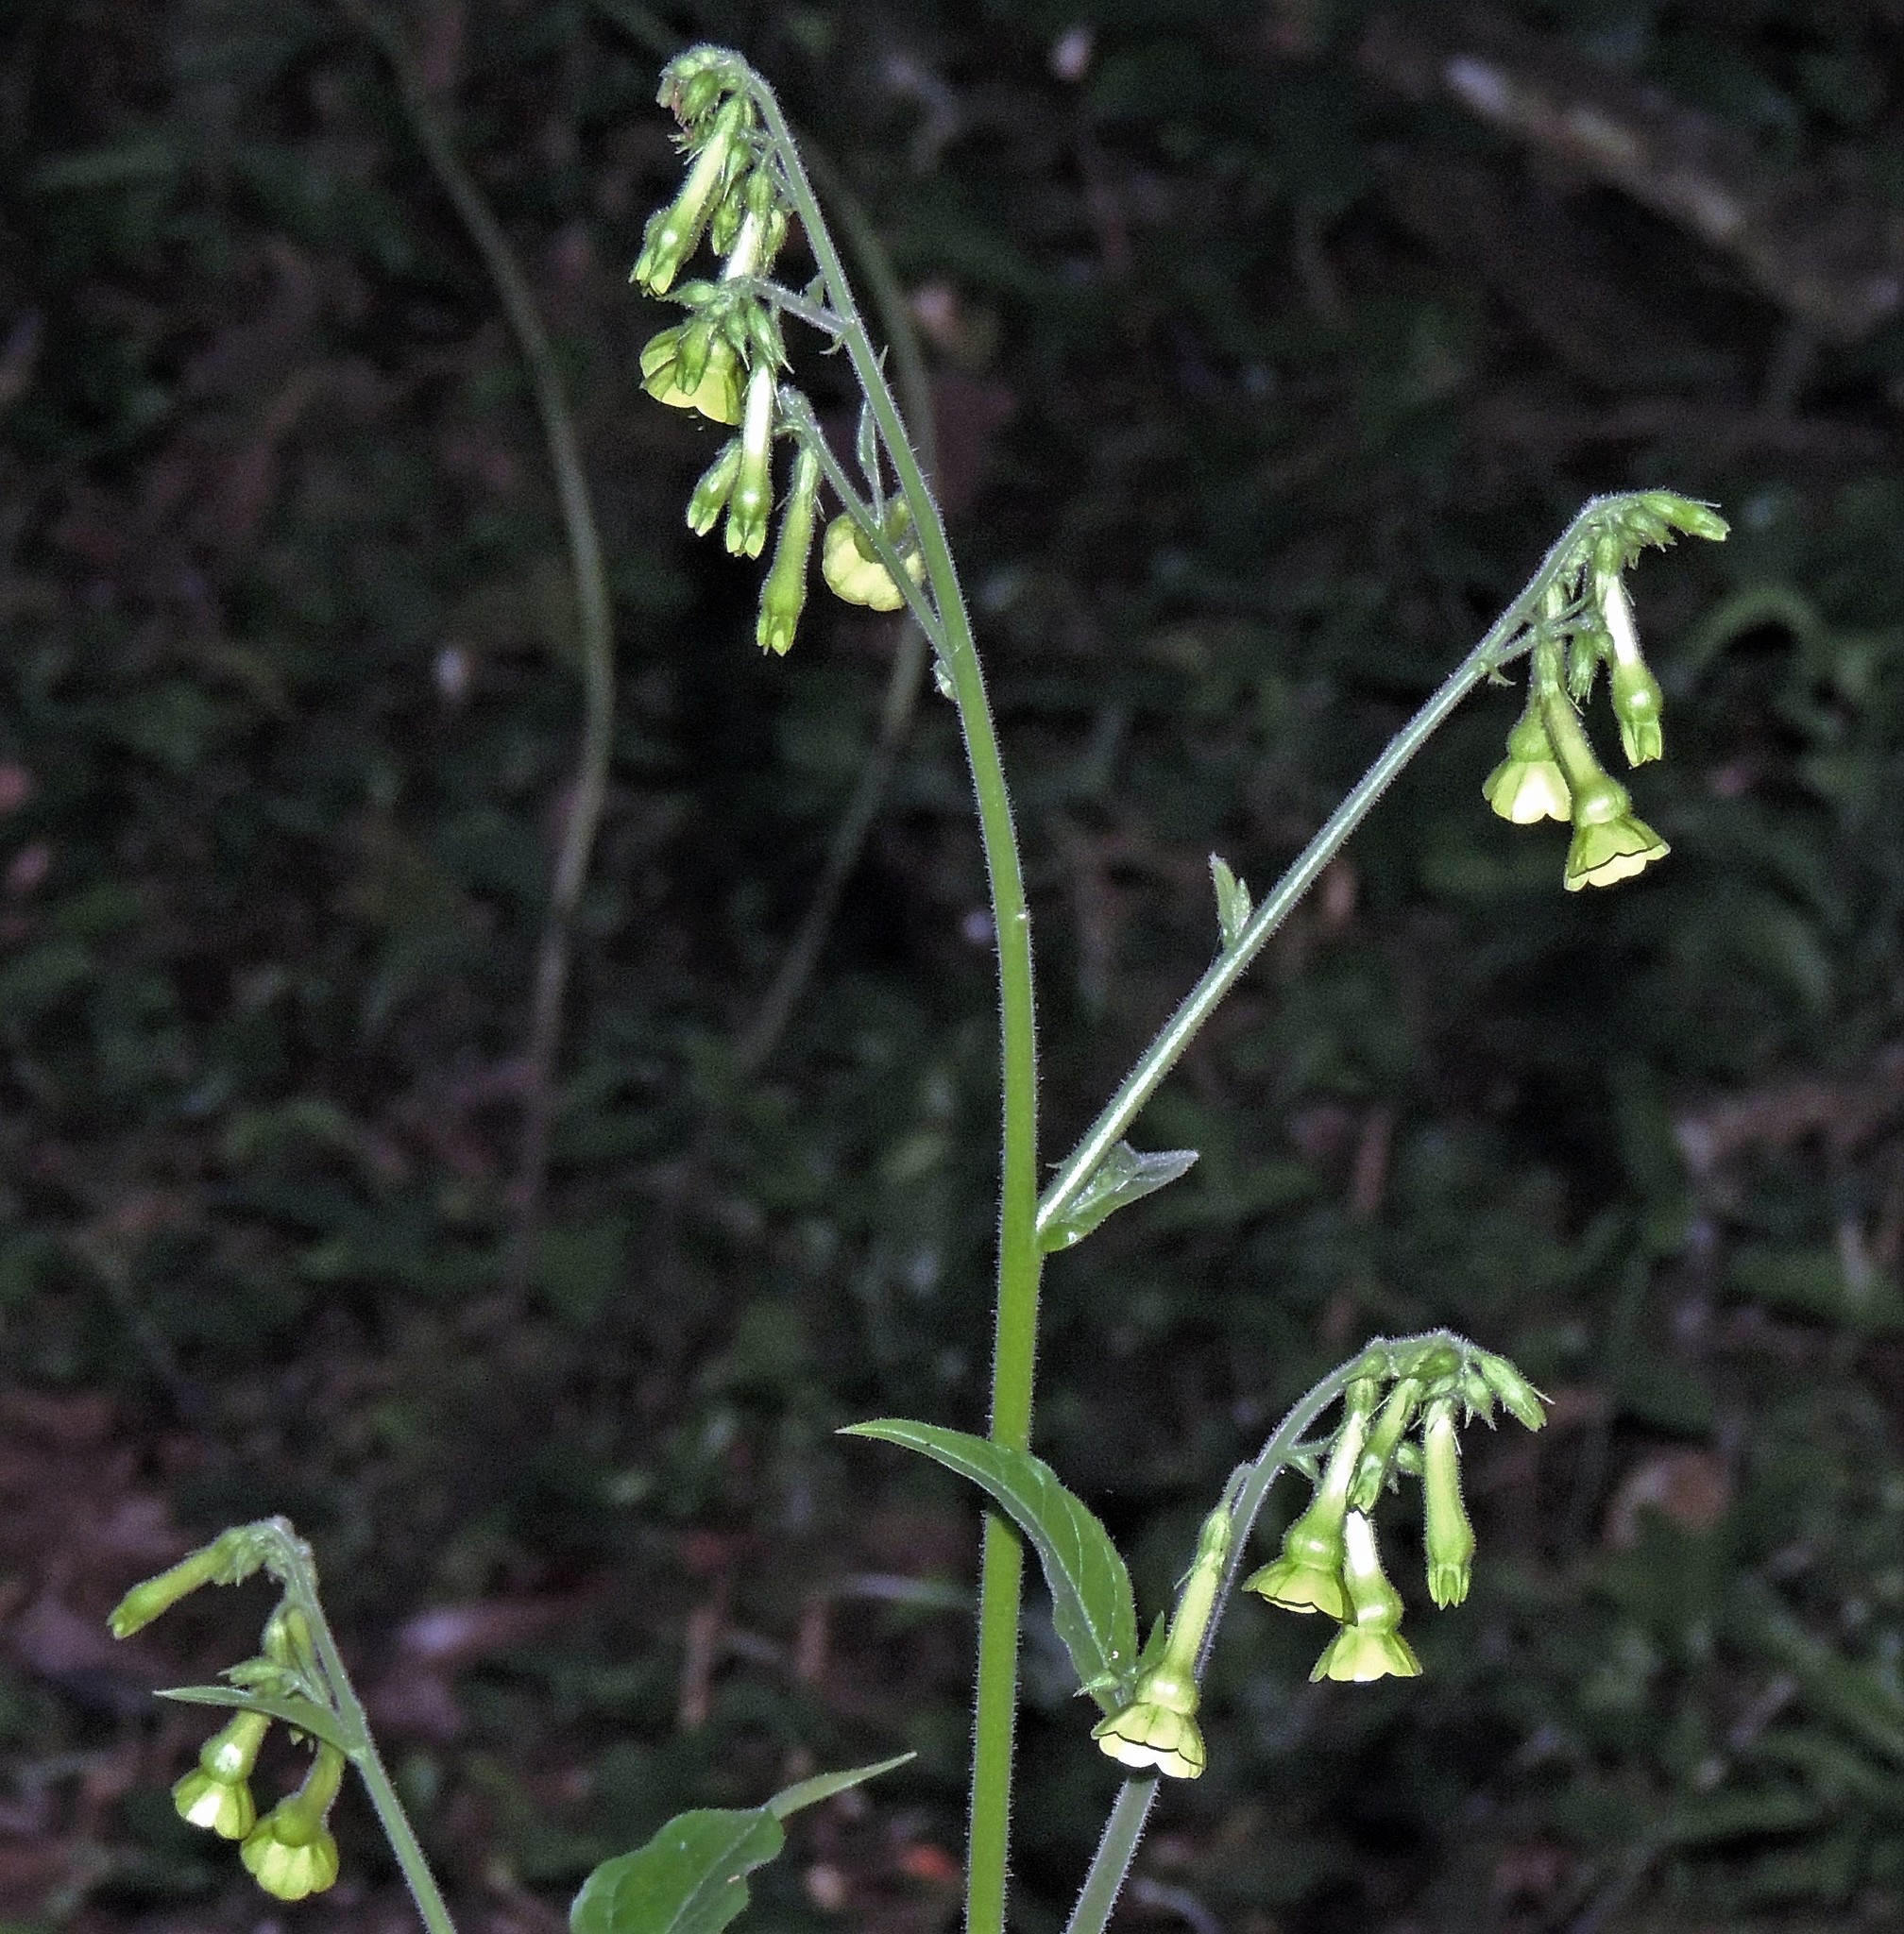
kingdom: Plantae
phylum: Tracheophyta
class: Magnoliopsida
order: Solanales
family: Solanaceae
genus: Nicotiana
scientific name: Nicotiana langsdorffii
